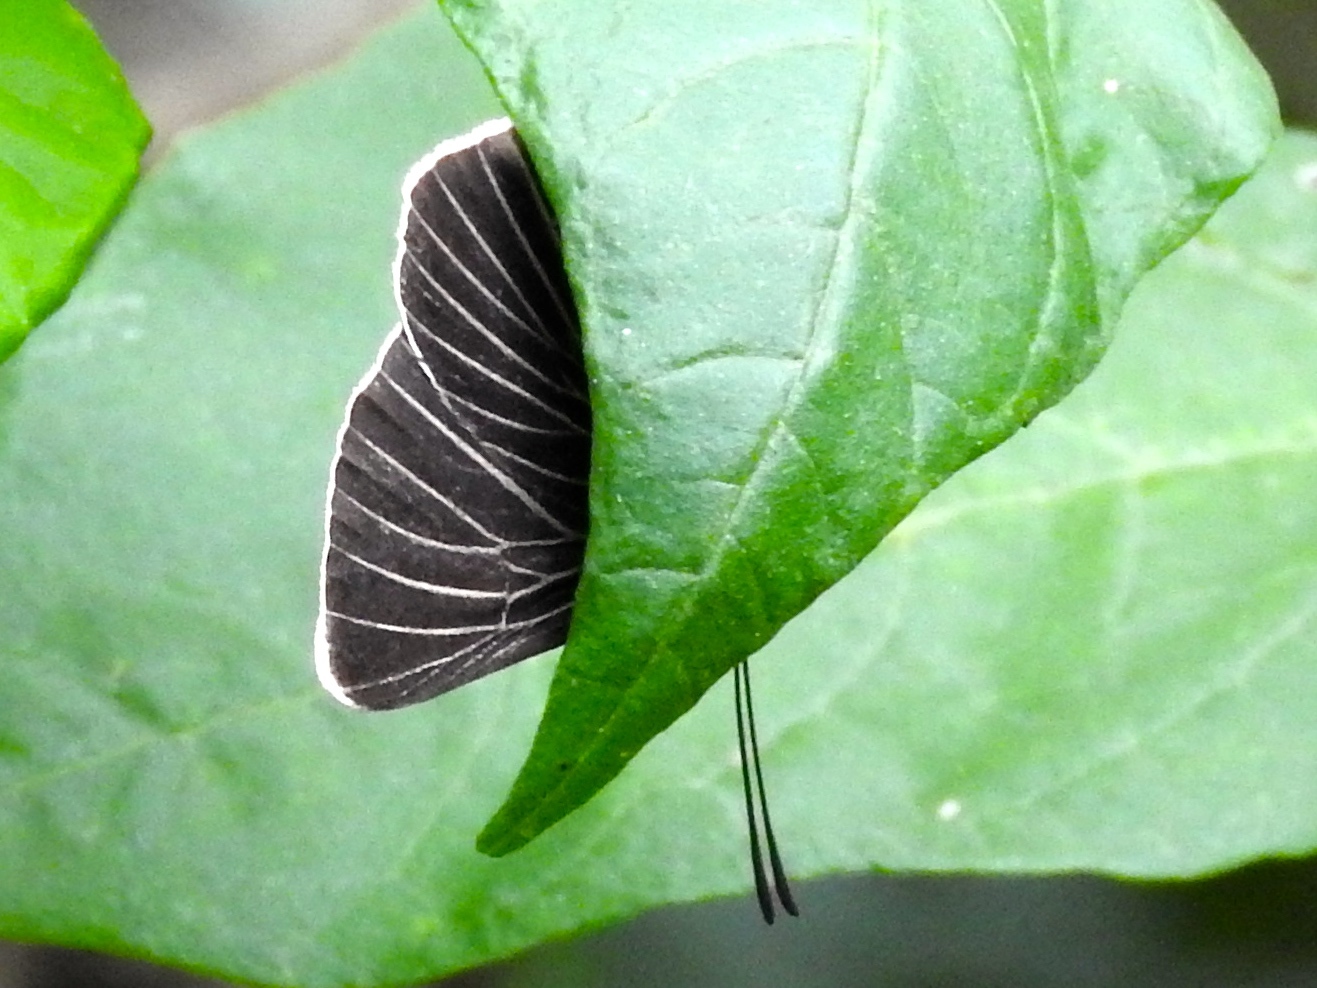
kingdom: Animalia
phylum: Arthropoda
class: Insecta
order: Lepidoptera
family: Lycaenidae
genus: Melanis
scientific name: Melanis
